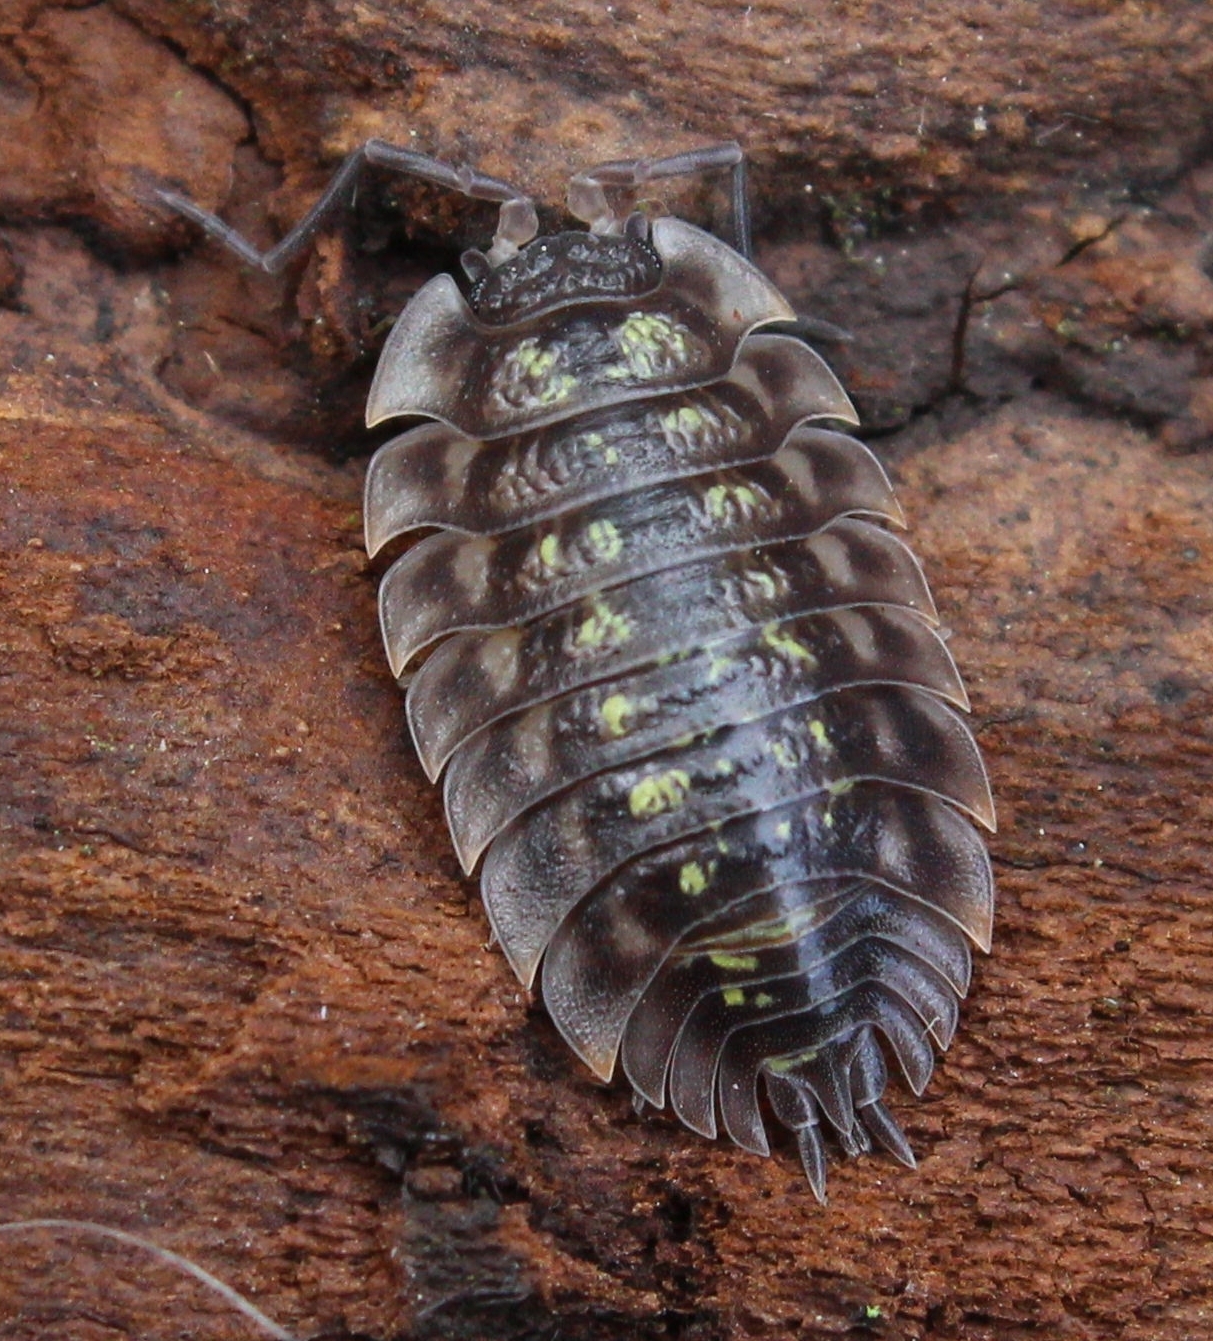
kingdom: Animalia
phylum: Arthropoda
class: Malacostraca
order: Isopoda
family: Oniscidae
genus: Oniscus
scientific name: Oniscus asellus
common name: Common shiny woodlouse
